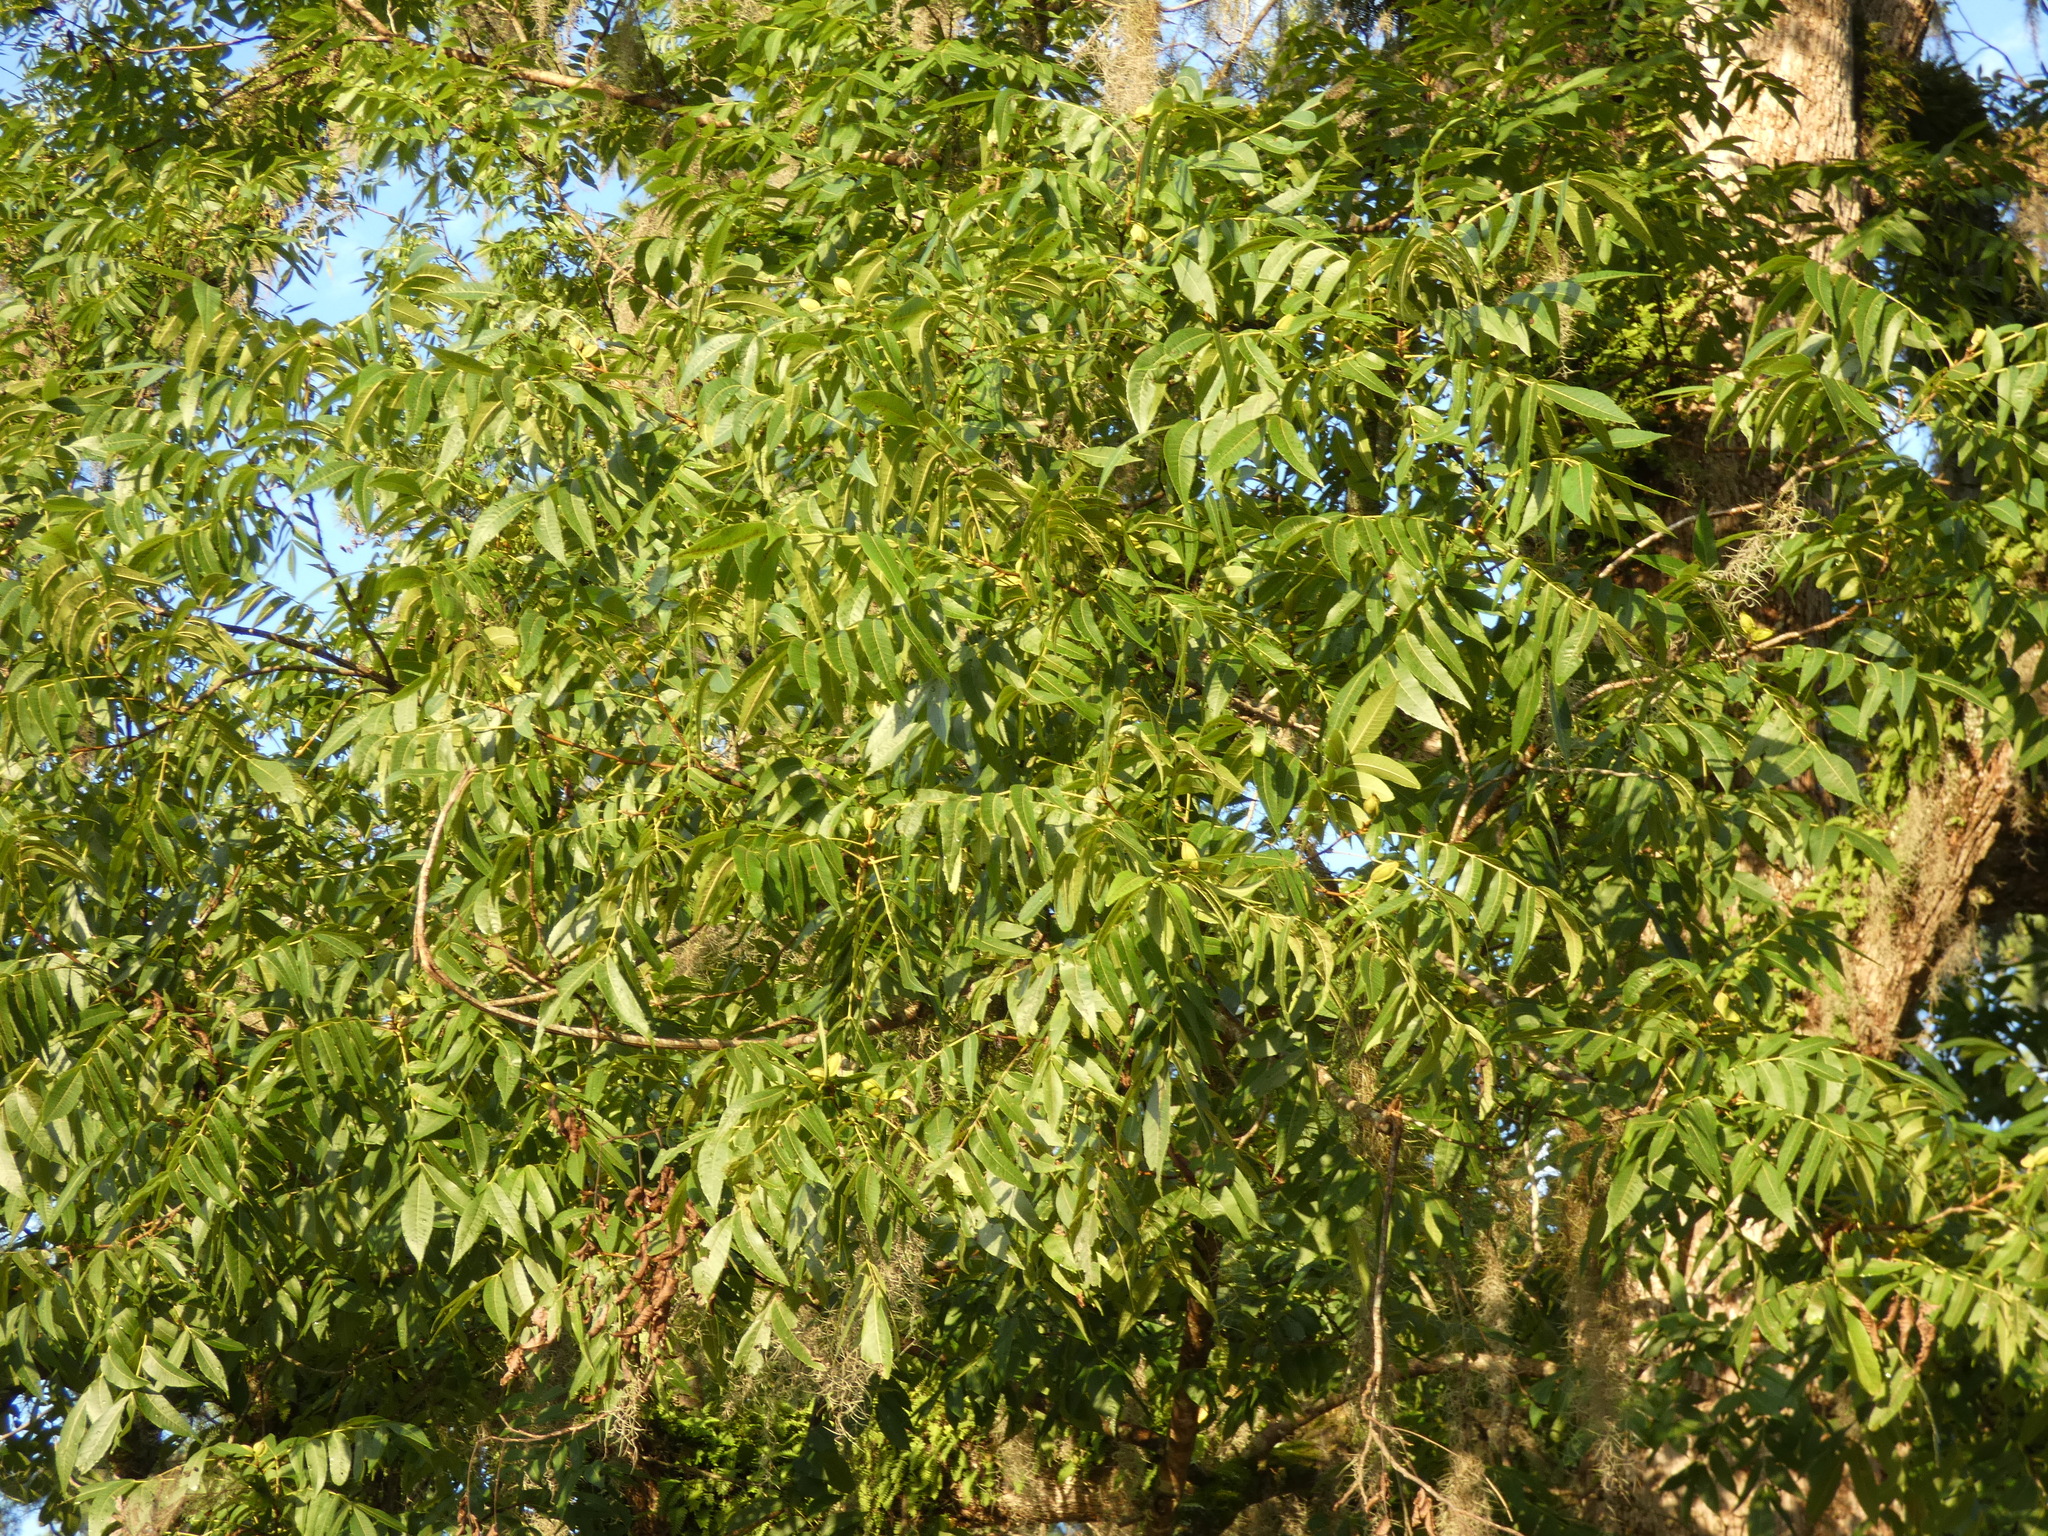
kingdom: Plantae
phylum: Tracheophyta
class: Magnoliopsida
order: Fagales
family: Juglandaceae
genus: Carya
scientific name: Carya illinoinensis
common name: Pecan
